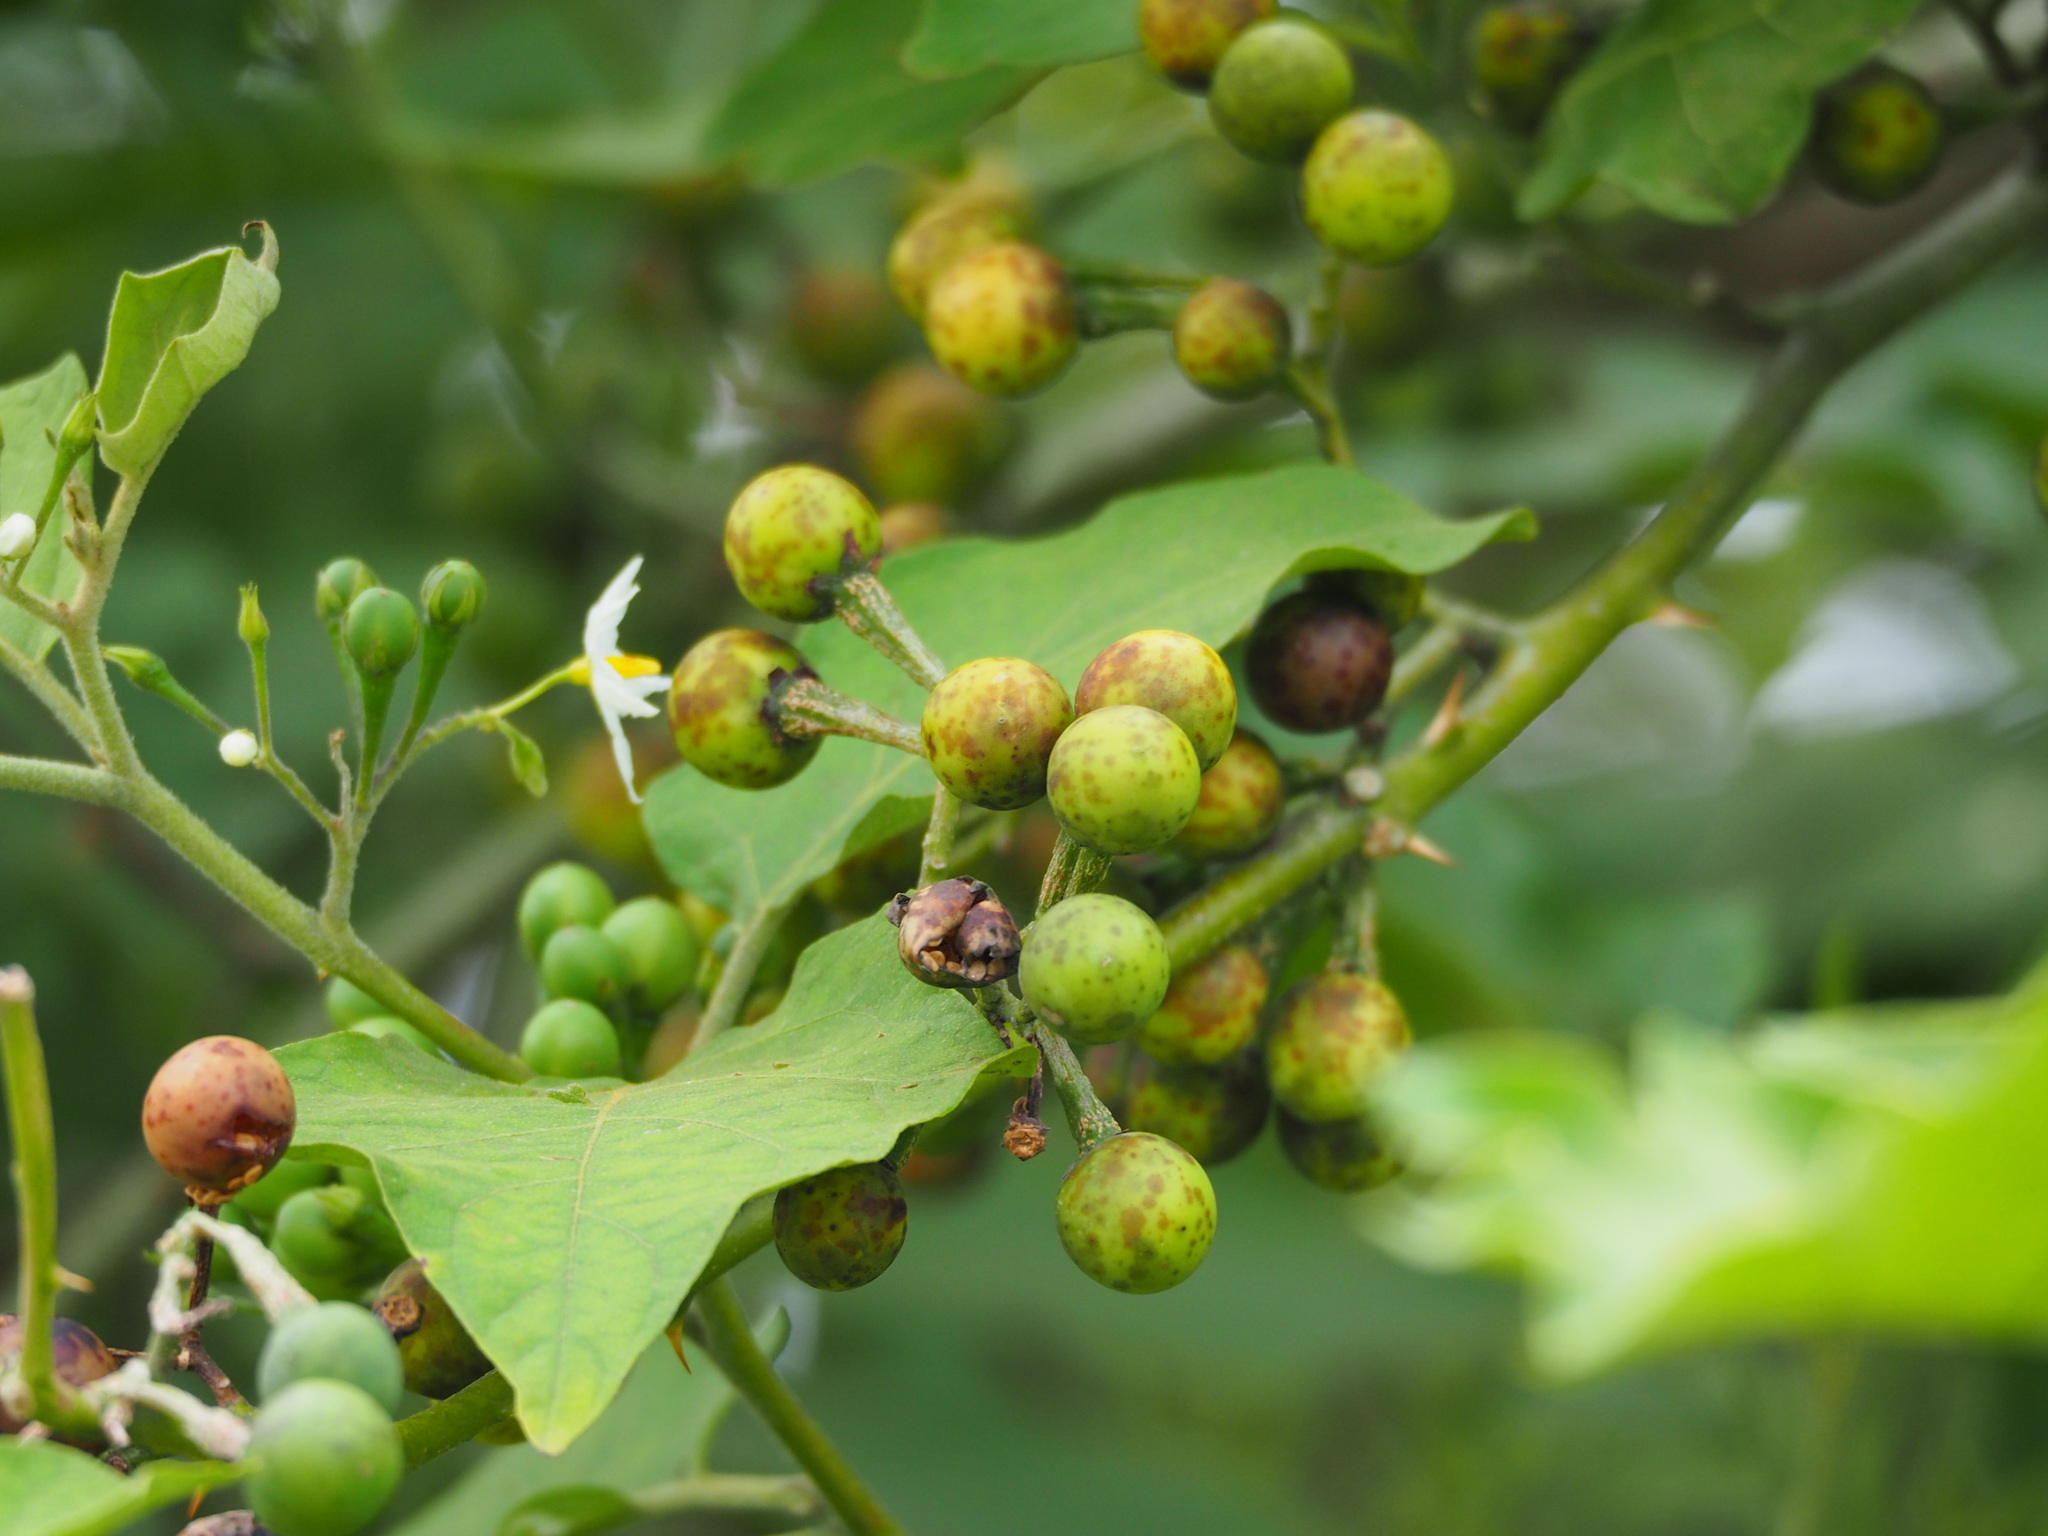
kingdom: Plantae
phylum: Tracheophyta
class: Magnoliopsida
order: Solanales
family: Solanaceae
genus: Solanum
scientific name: Solanum torvum
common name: Turkey berry
